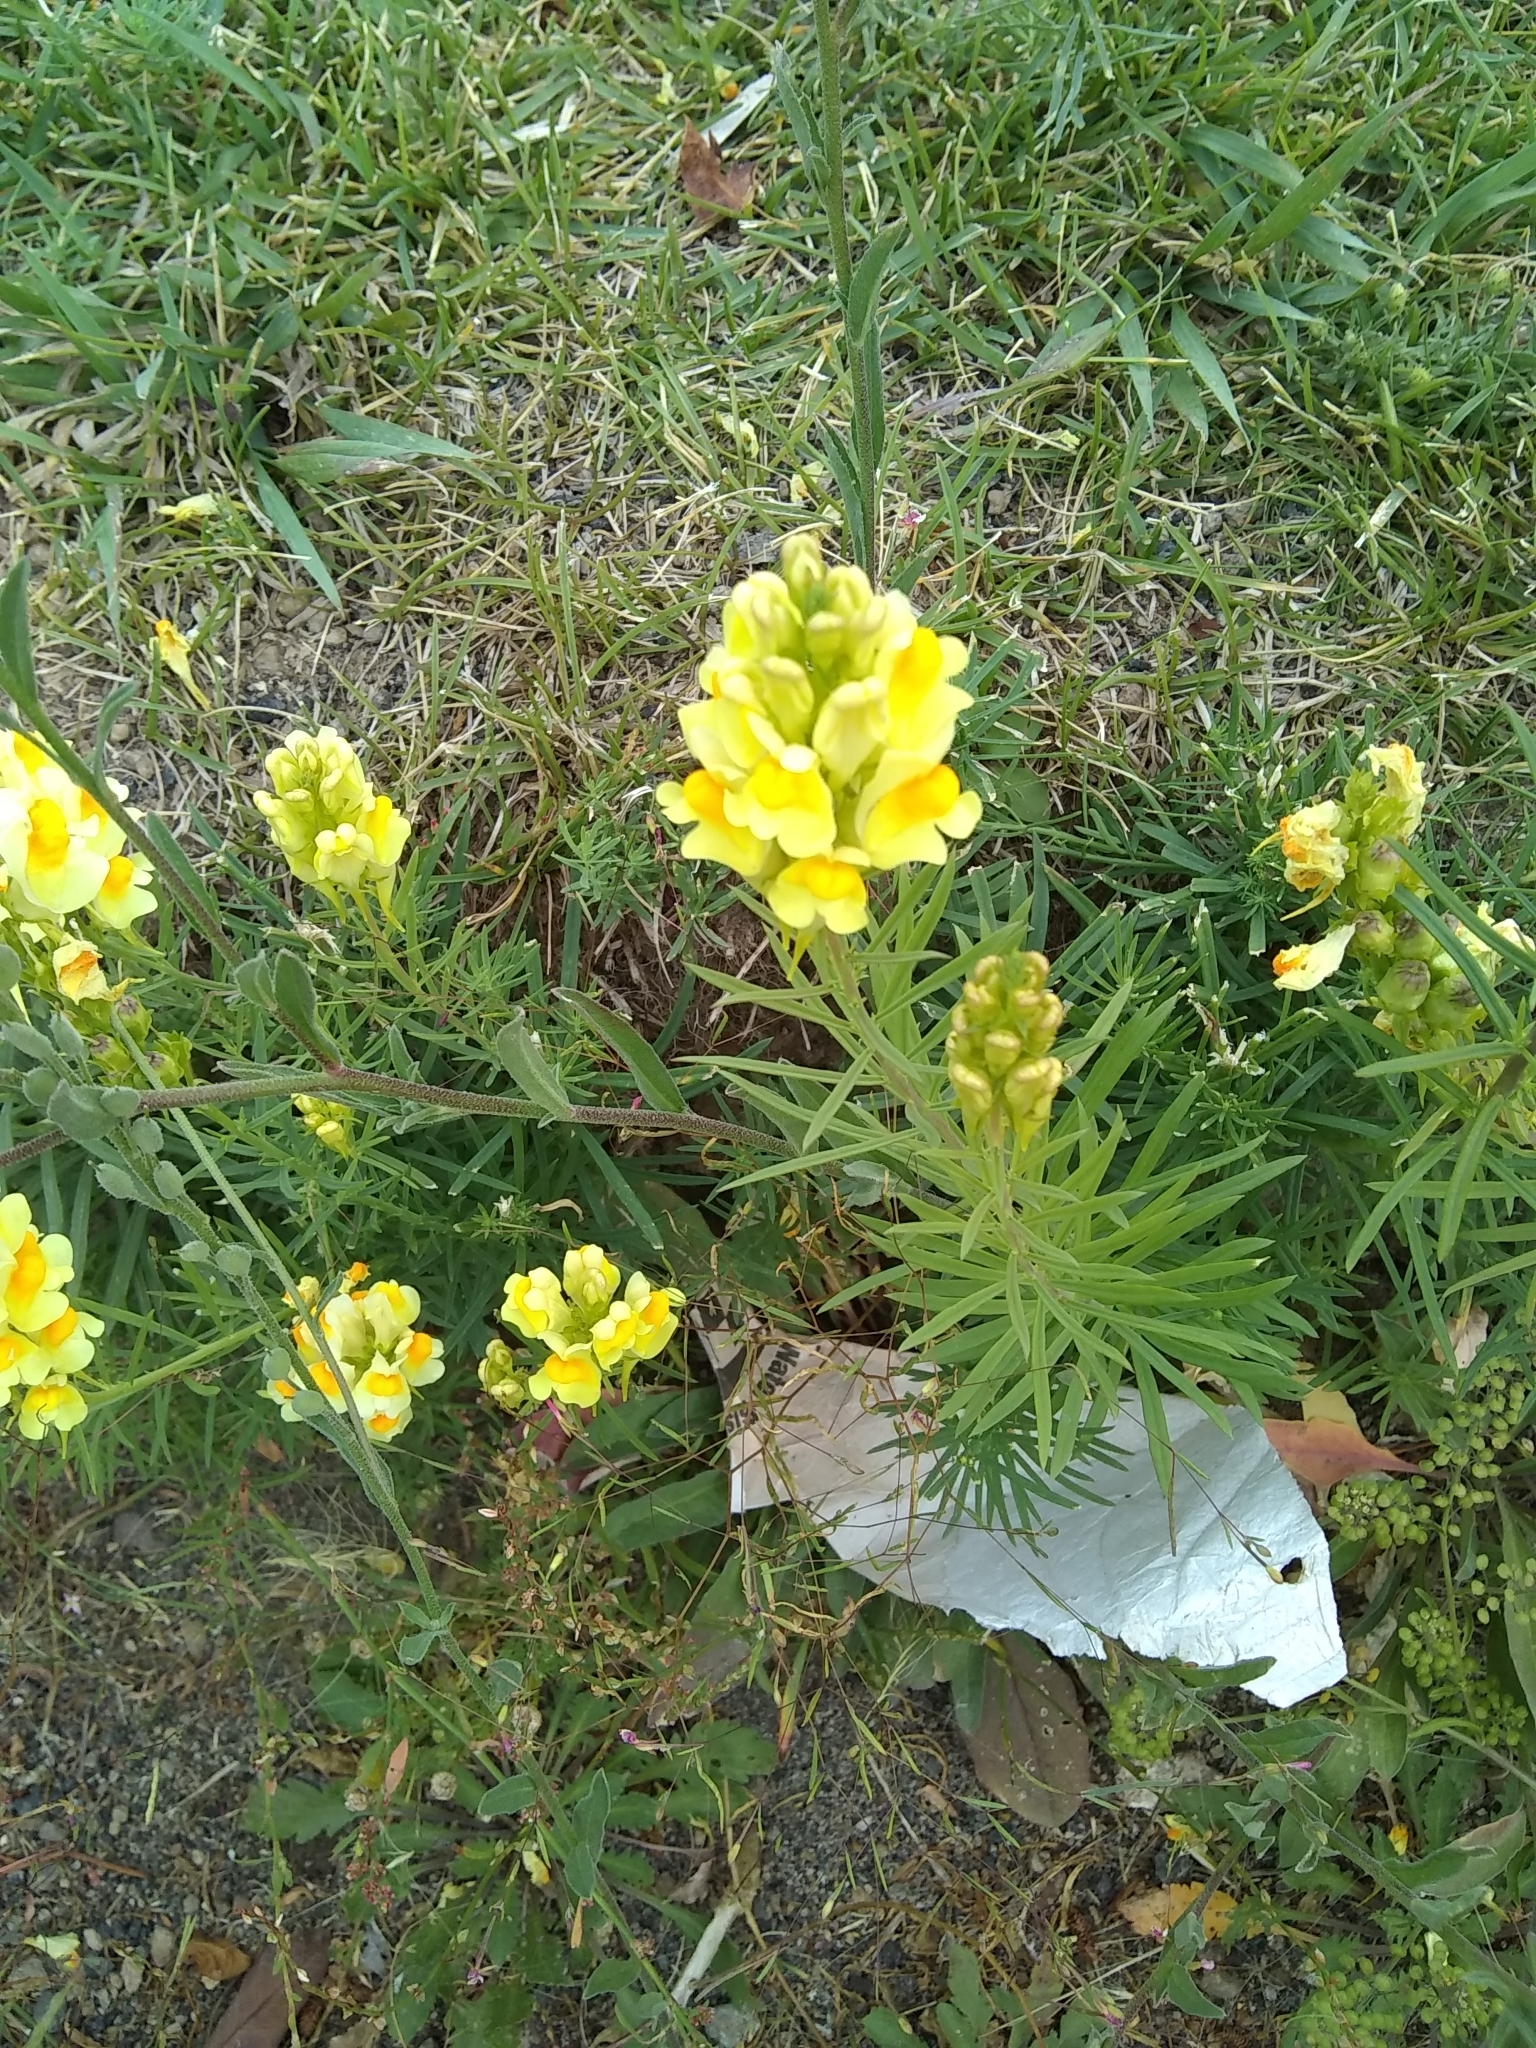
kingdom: Plantae
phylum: Tracheophyta
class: Magnoliopsida
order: Lamiales
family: Plantaginaceae
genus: Linaria
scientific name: Linaria vulgaris
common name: Butter and eggs
